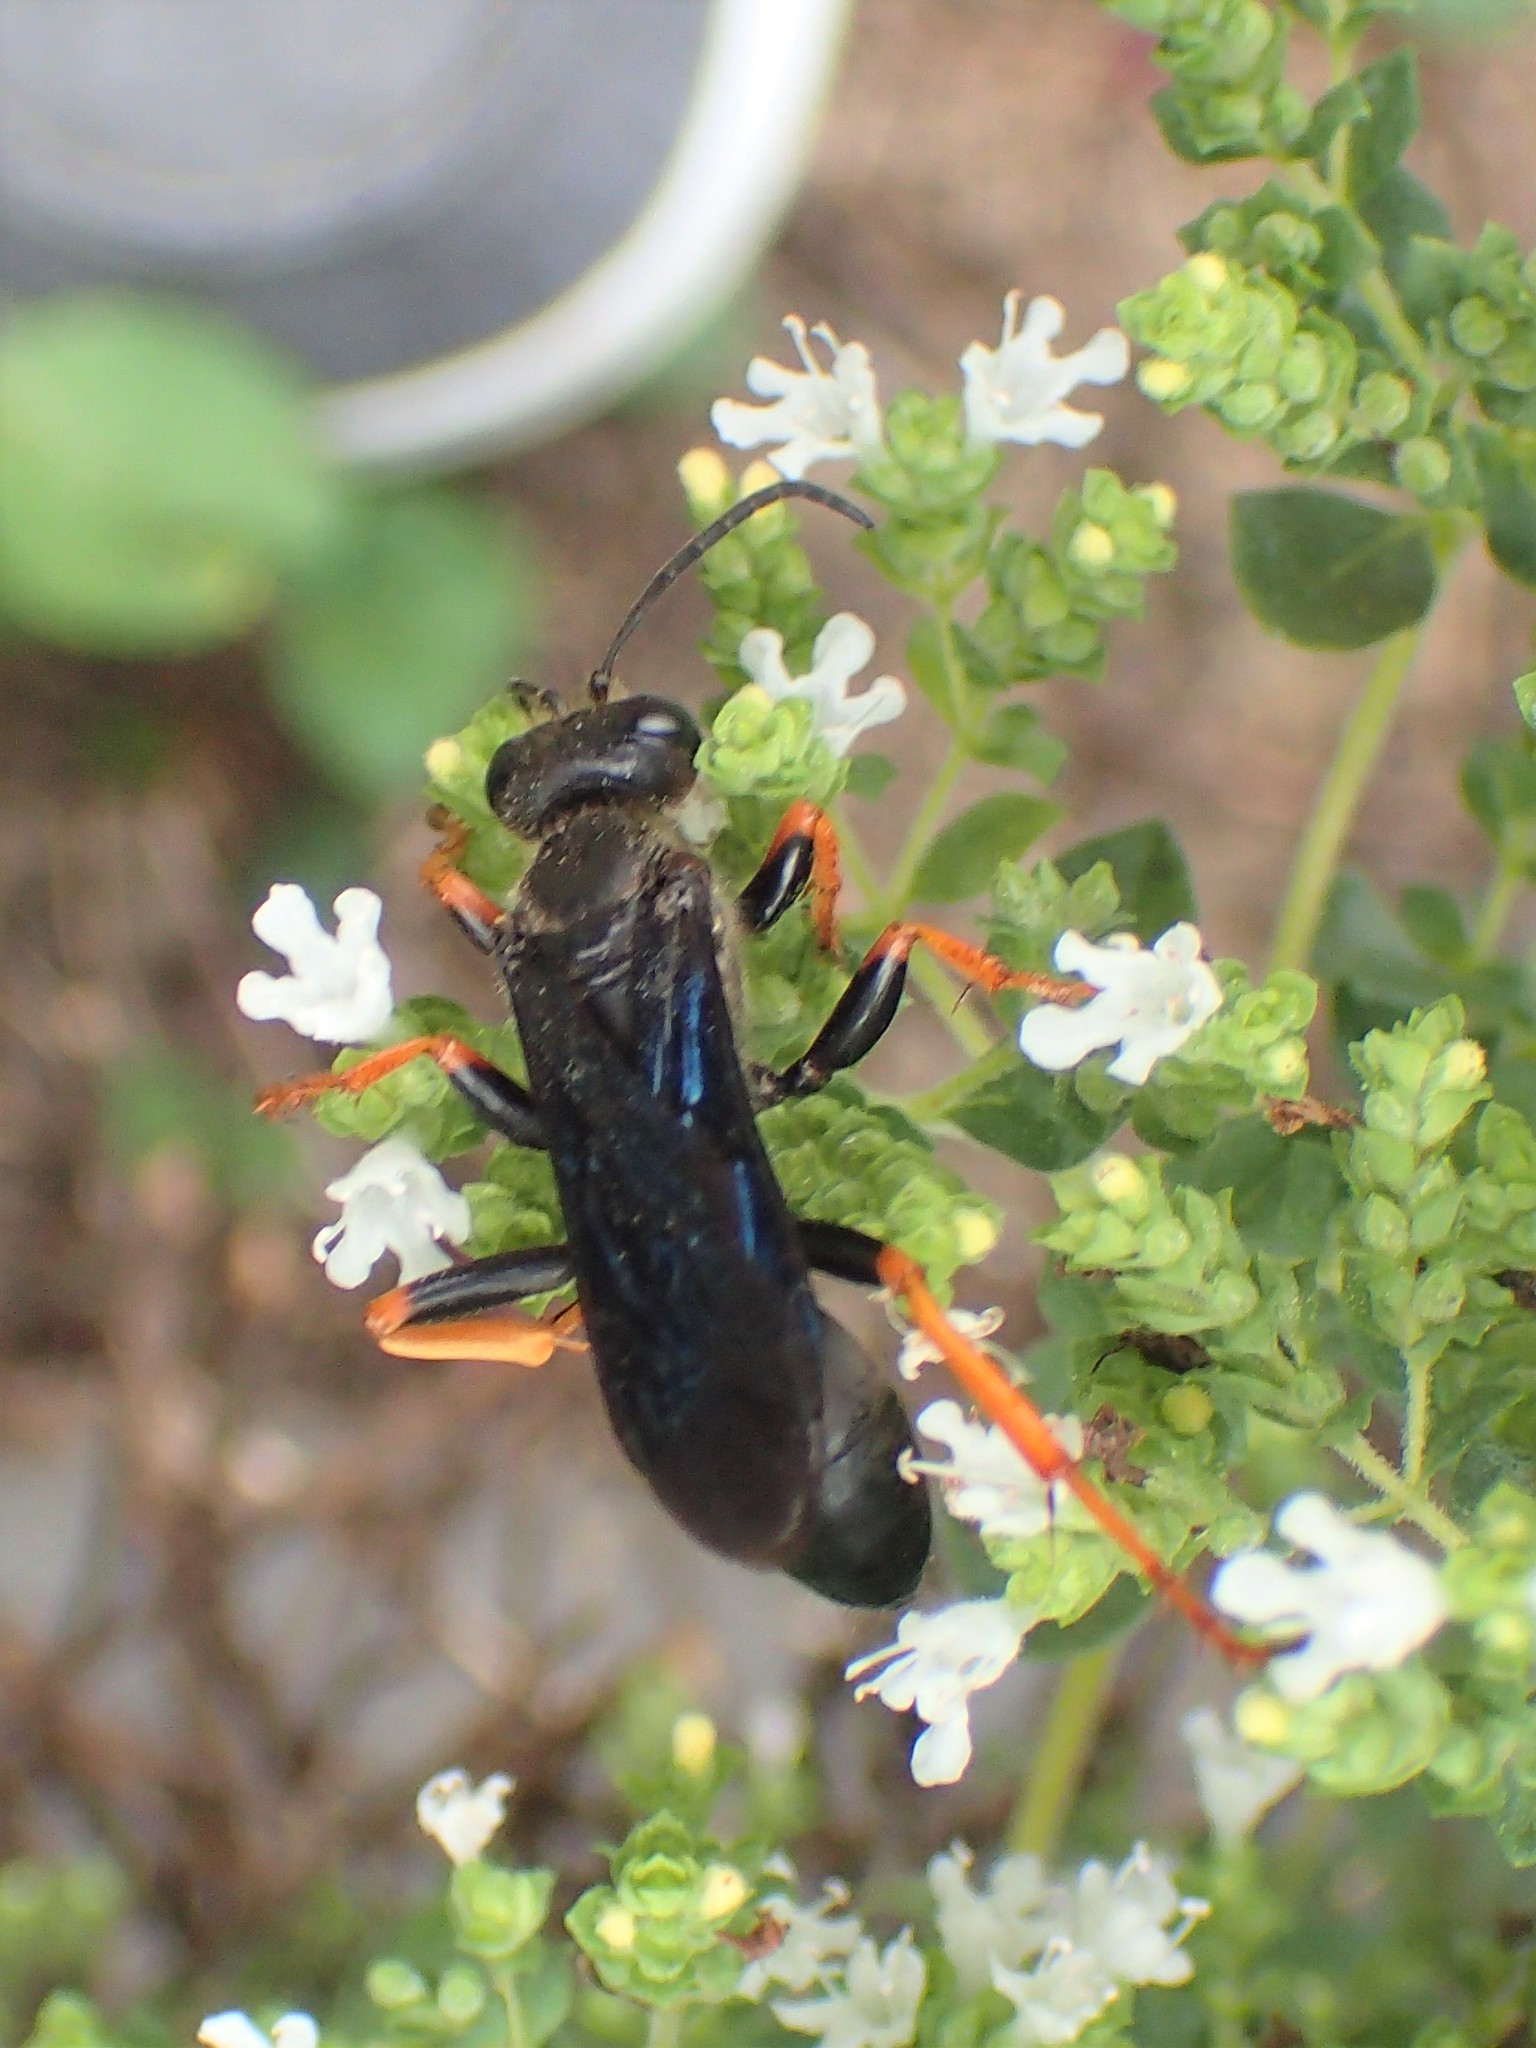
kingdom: Animalia
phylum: Arthropoda
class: Insecta
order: Hymenoptera
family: Sphecidae
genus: Sphex
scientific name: Sphex nudus
